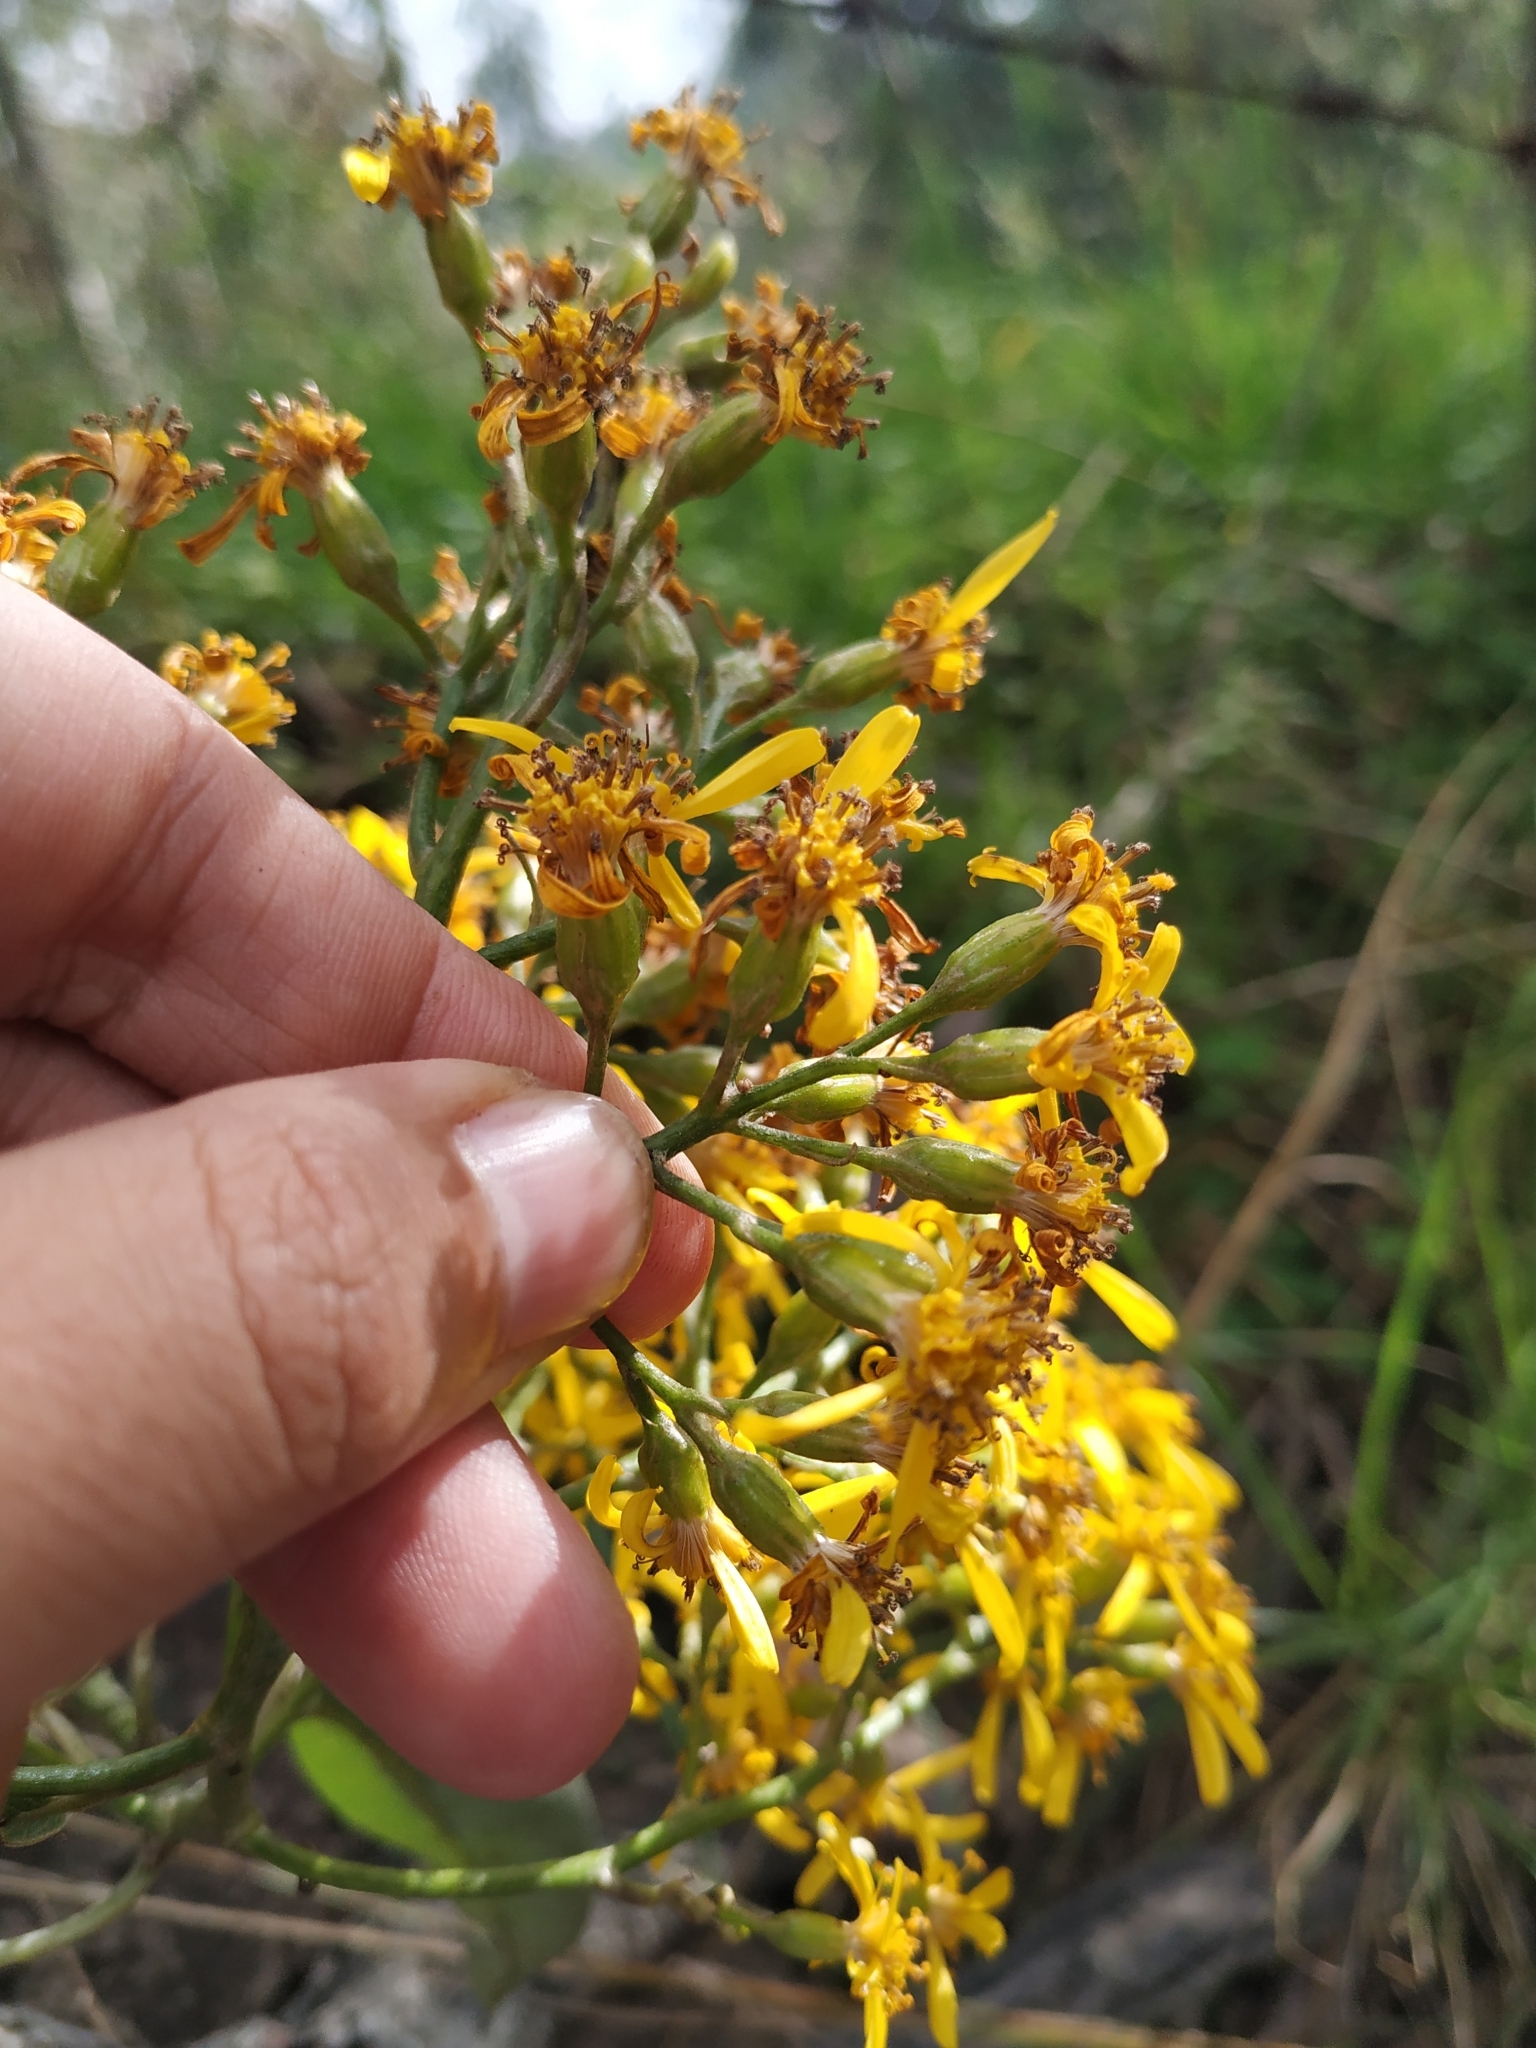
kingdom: Plantae
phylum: Tracheophyta
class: Magnoliopsida
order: Asterales
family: Asteraceae
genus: Dendrophorbium
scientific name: Dendrophorbium americanum
